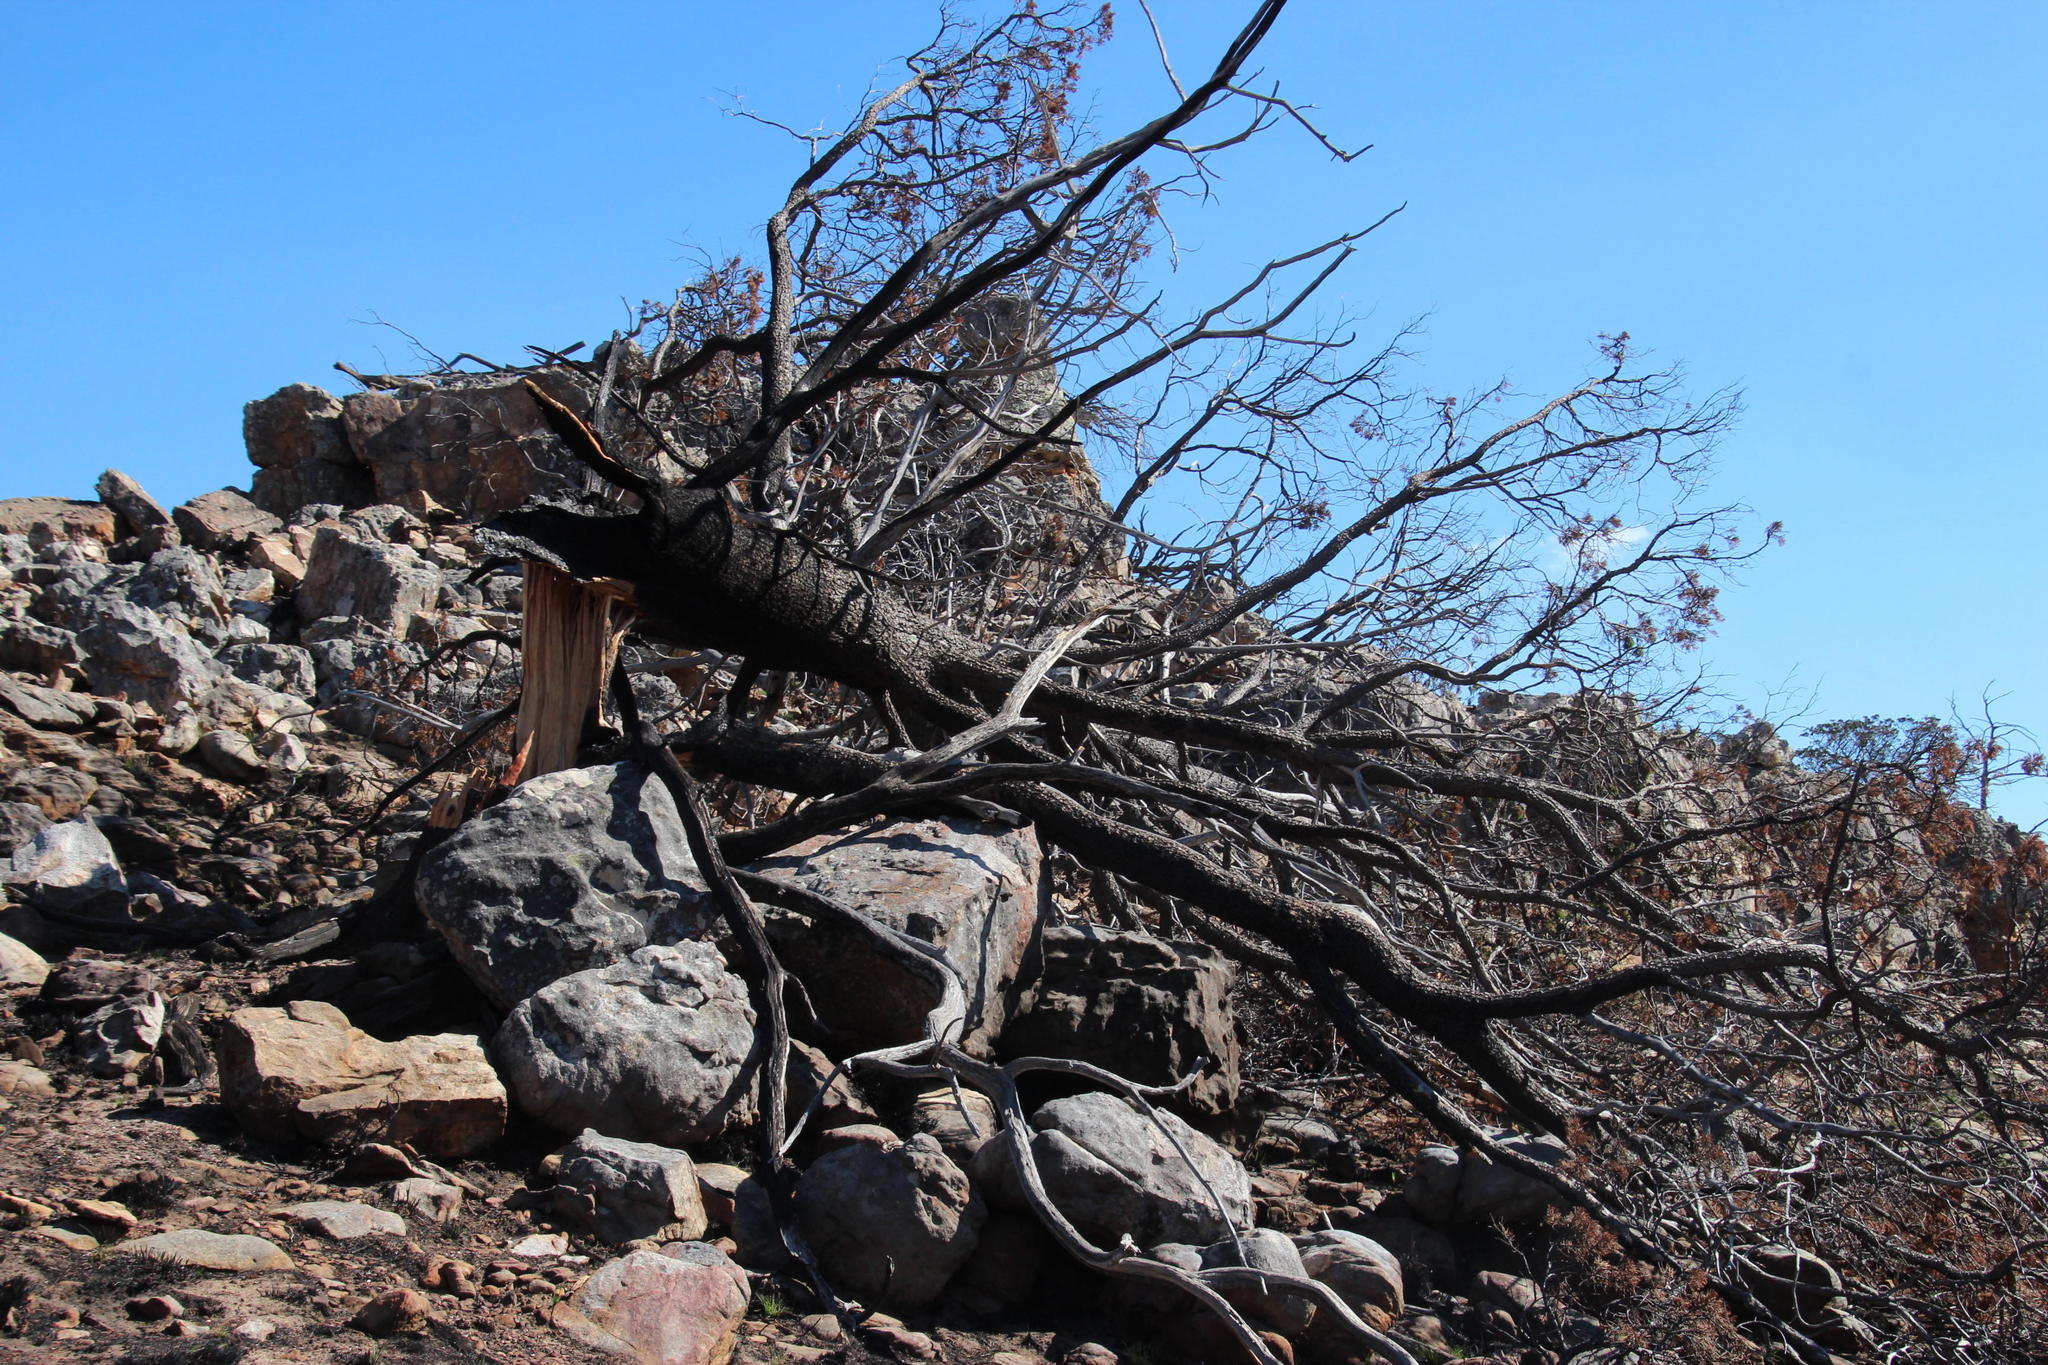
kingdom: Plantae
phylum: Tracheophyta
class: Pinopsida
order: Pinales
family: Cupressaceae
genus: Widdringtonia
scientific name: Widdringtonia nodiflora
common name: Cape cypress
